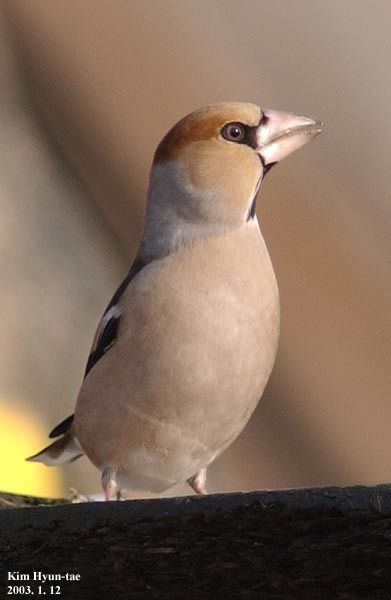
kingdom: Animalia
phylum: Chordata
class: Aves
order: Passeriformes
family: Fringillidae
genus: Coccothraustes
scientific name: Coccothraustes coccothraustes
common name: Hawfinch
